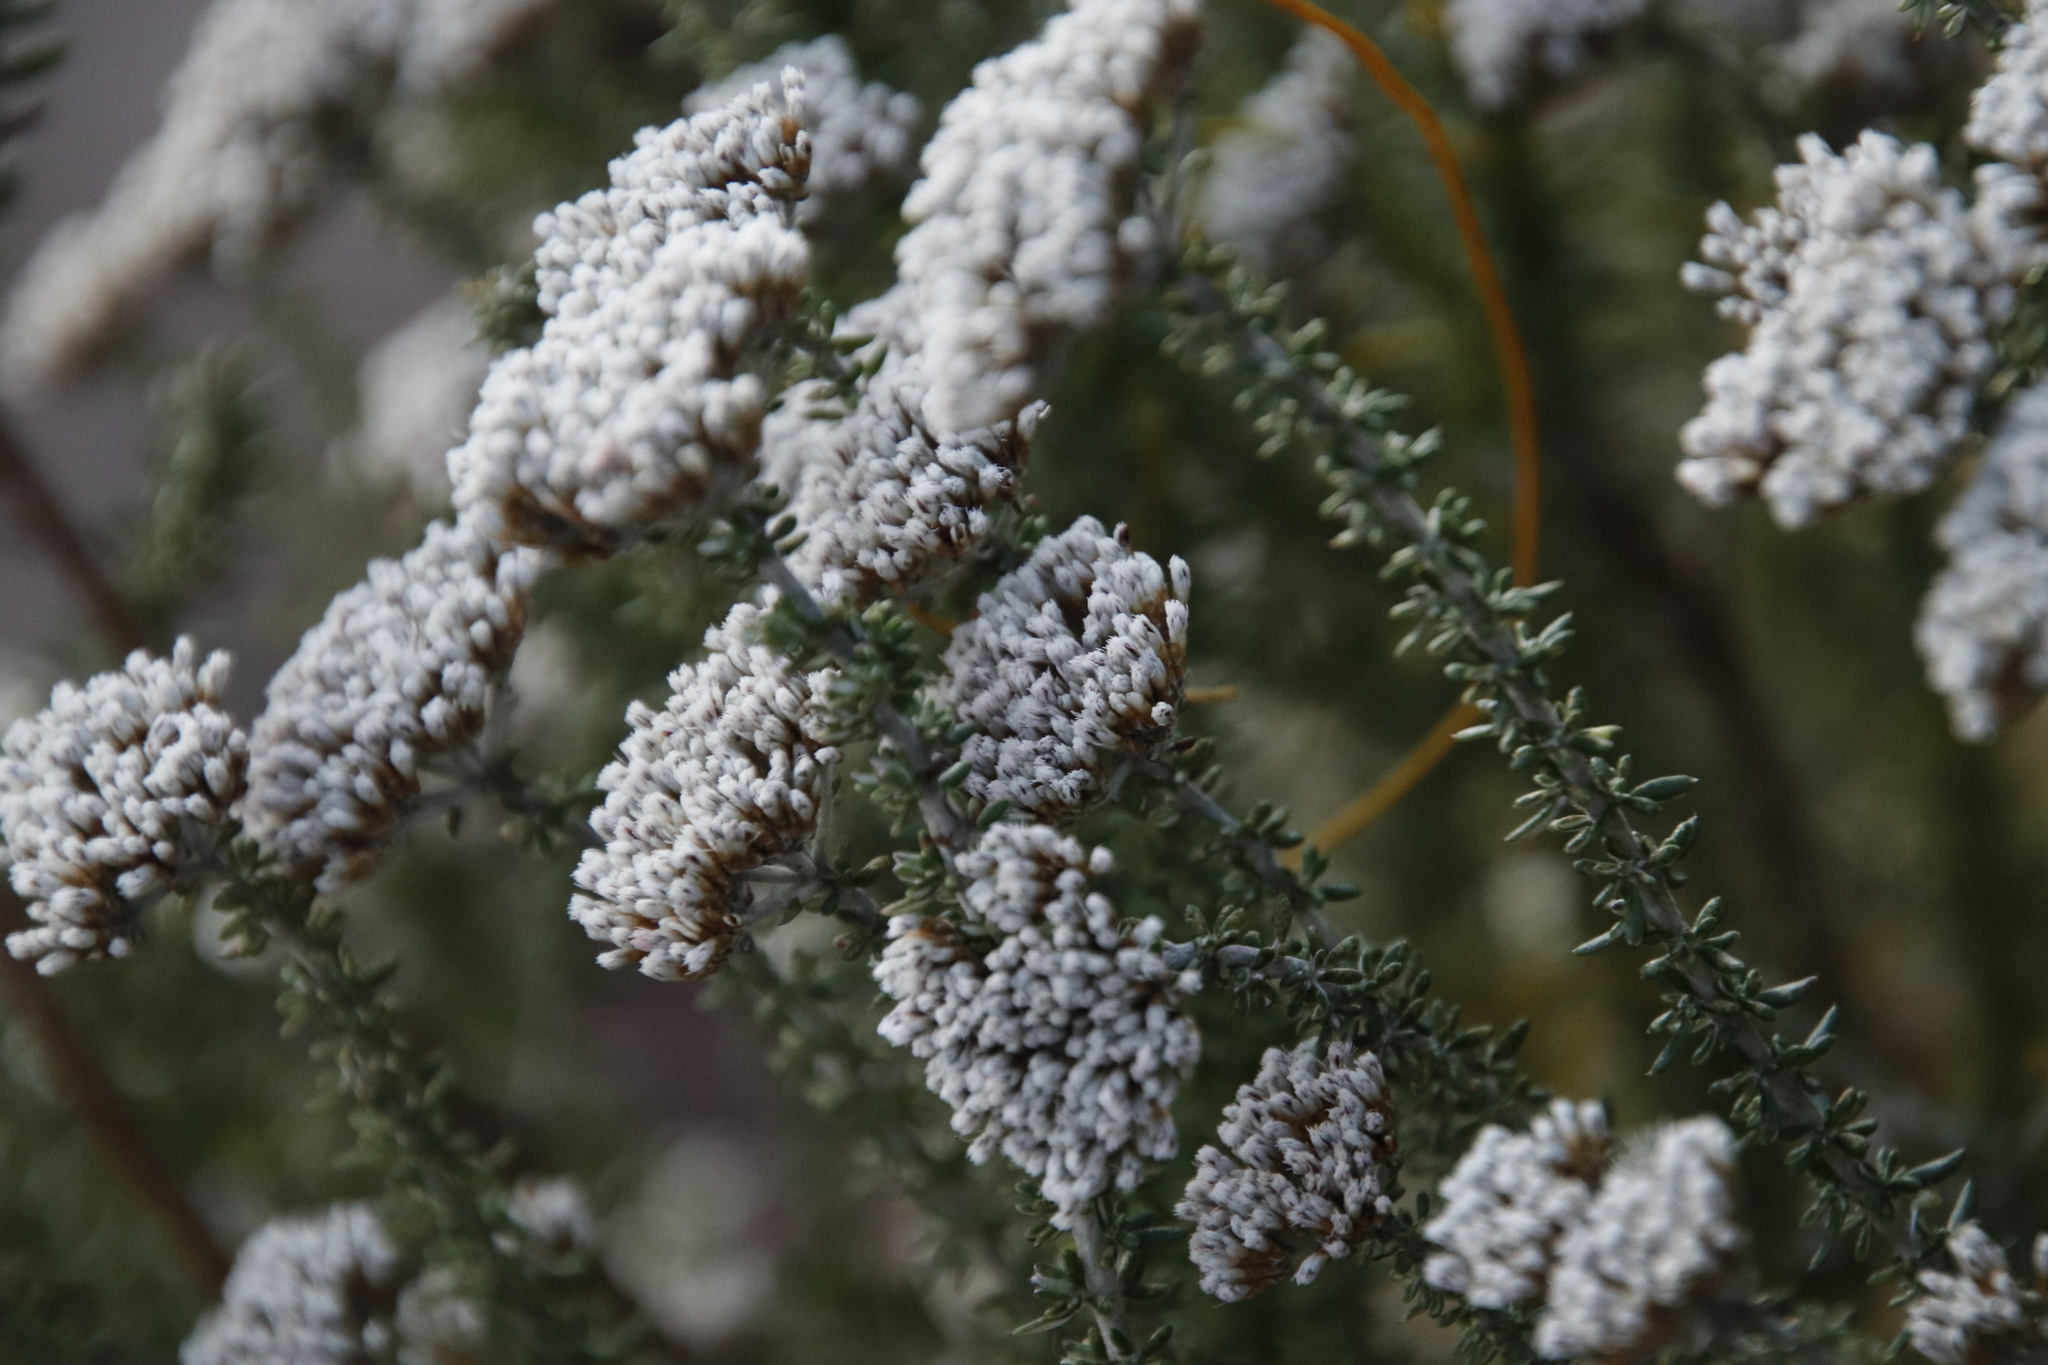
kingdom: Plantae
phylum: Tracheophyta
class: Magnoliopsida
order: Asterales
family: Asteraceae
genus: Metalasia
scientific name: Metalasia densa
